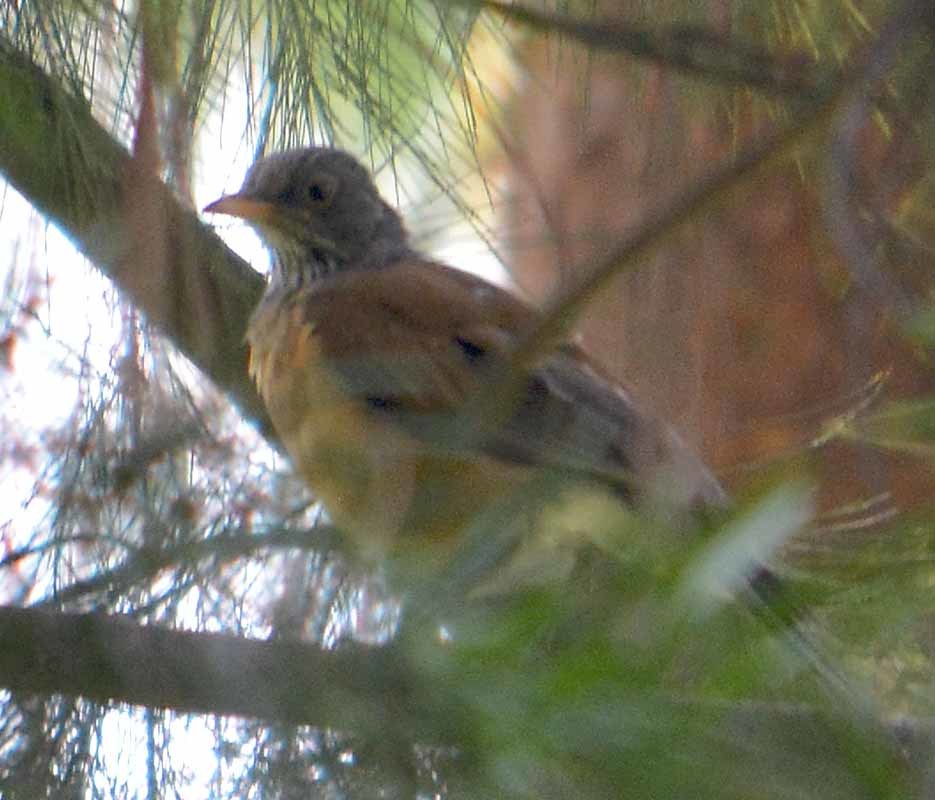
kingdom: Animalia
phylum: Chordata
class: Aves
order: Passeriformes
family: Turdidae
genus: Turdus
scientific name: Turdus rufopalliatus
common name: Rufous-backed robin
